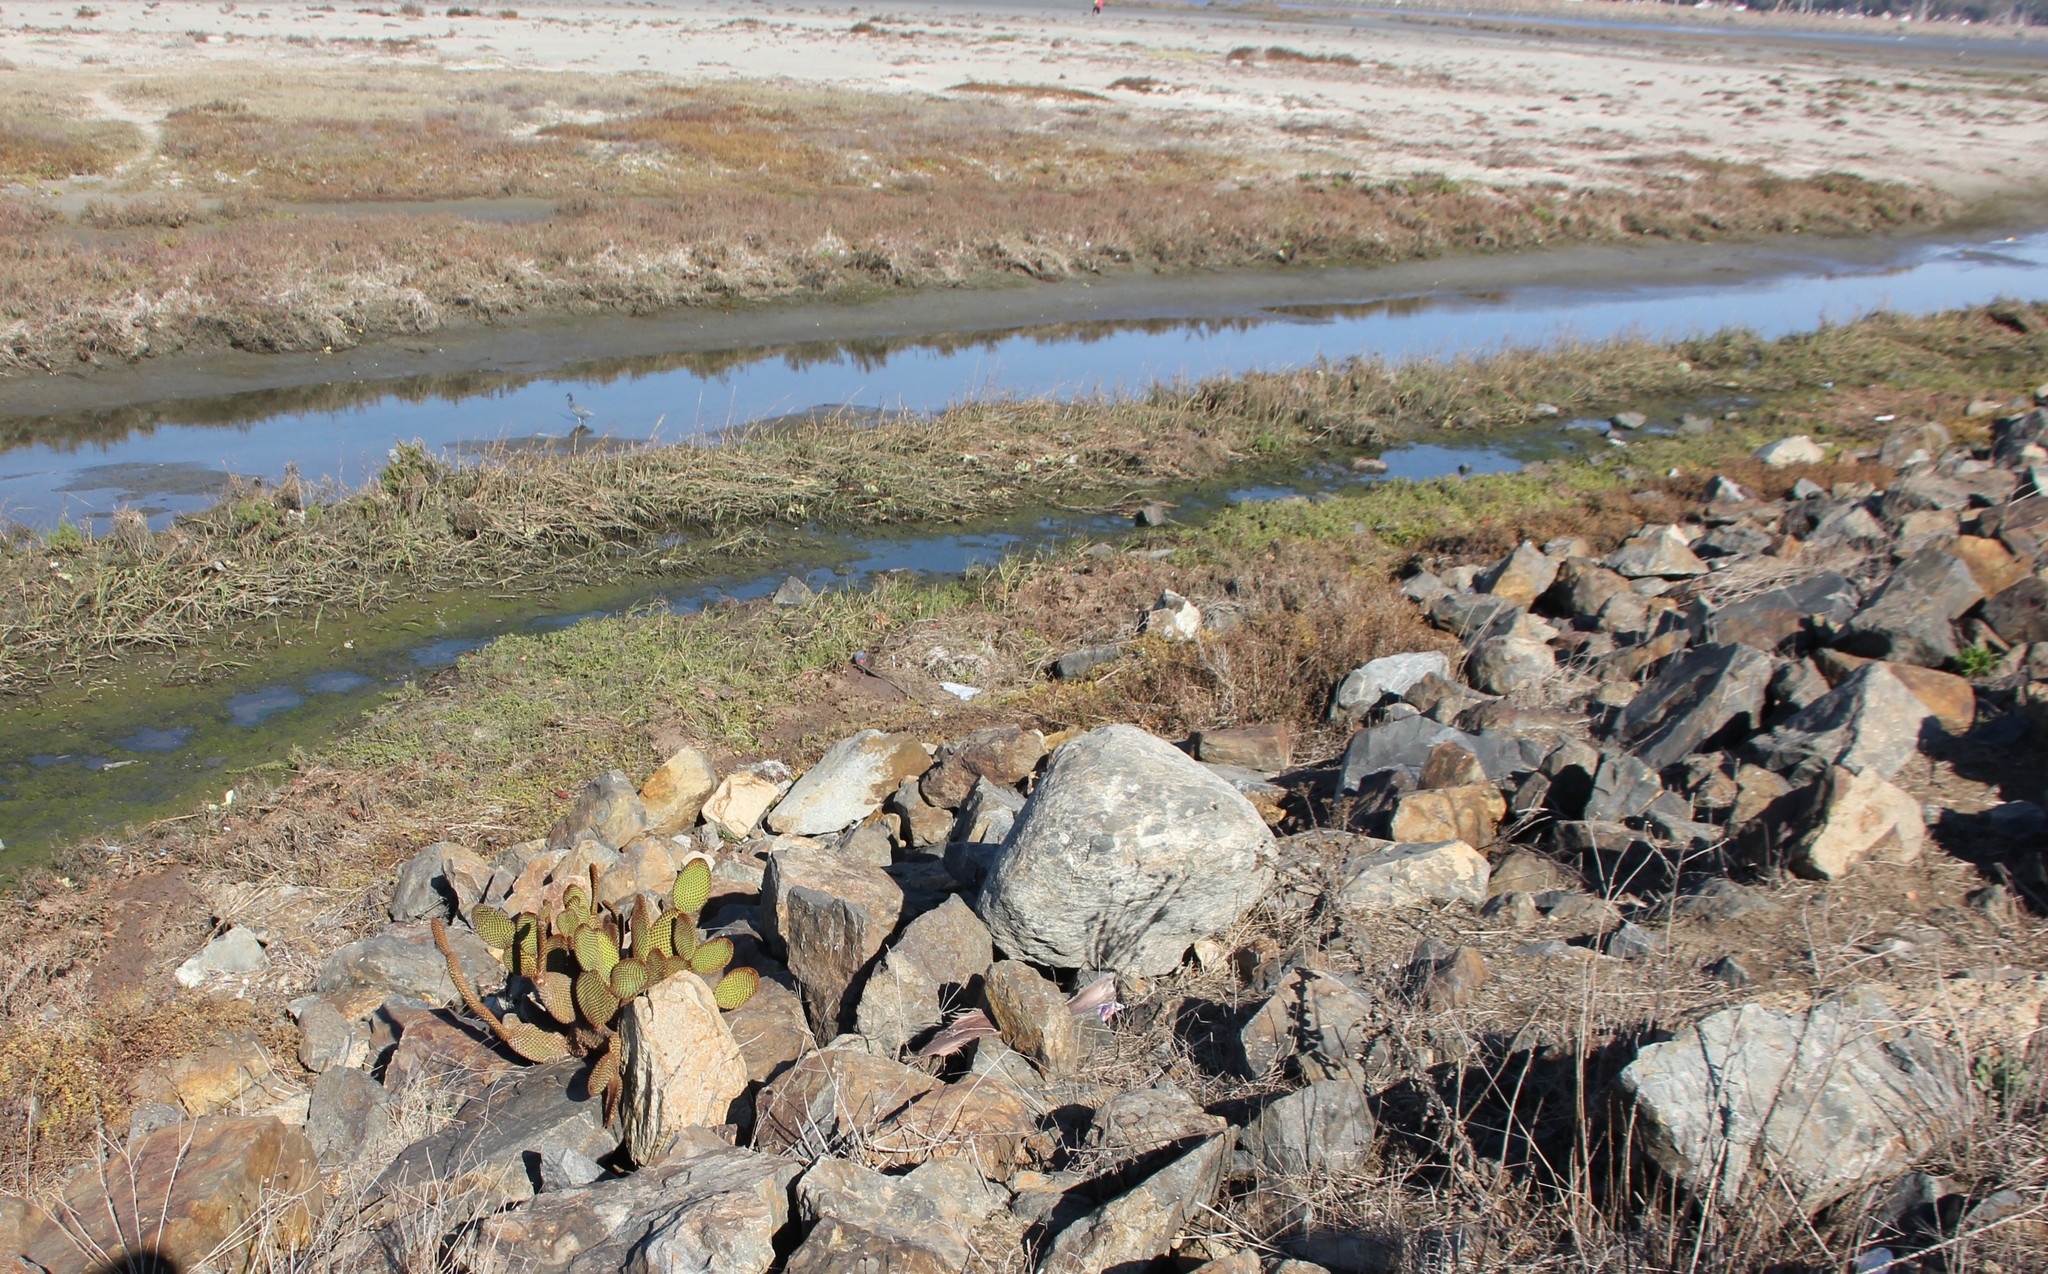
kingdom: Plantae
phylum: Tracheophyta
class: Magnoliopsida
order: Caryophyllales
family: Cactaceae
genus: Opuntia
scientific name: Opuntia microdasys
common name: Angel's-wings
